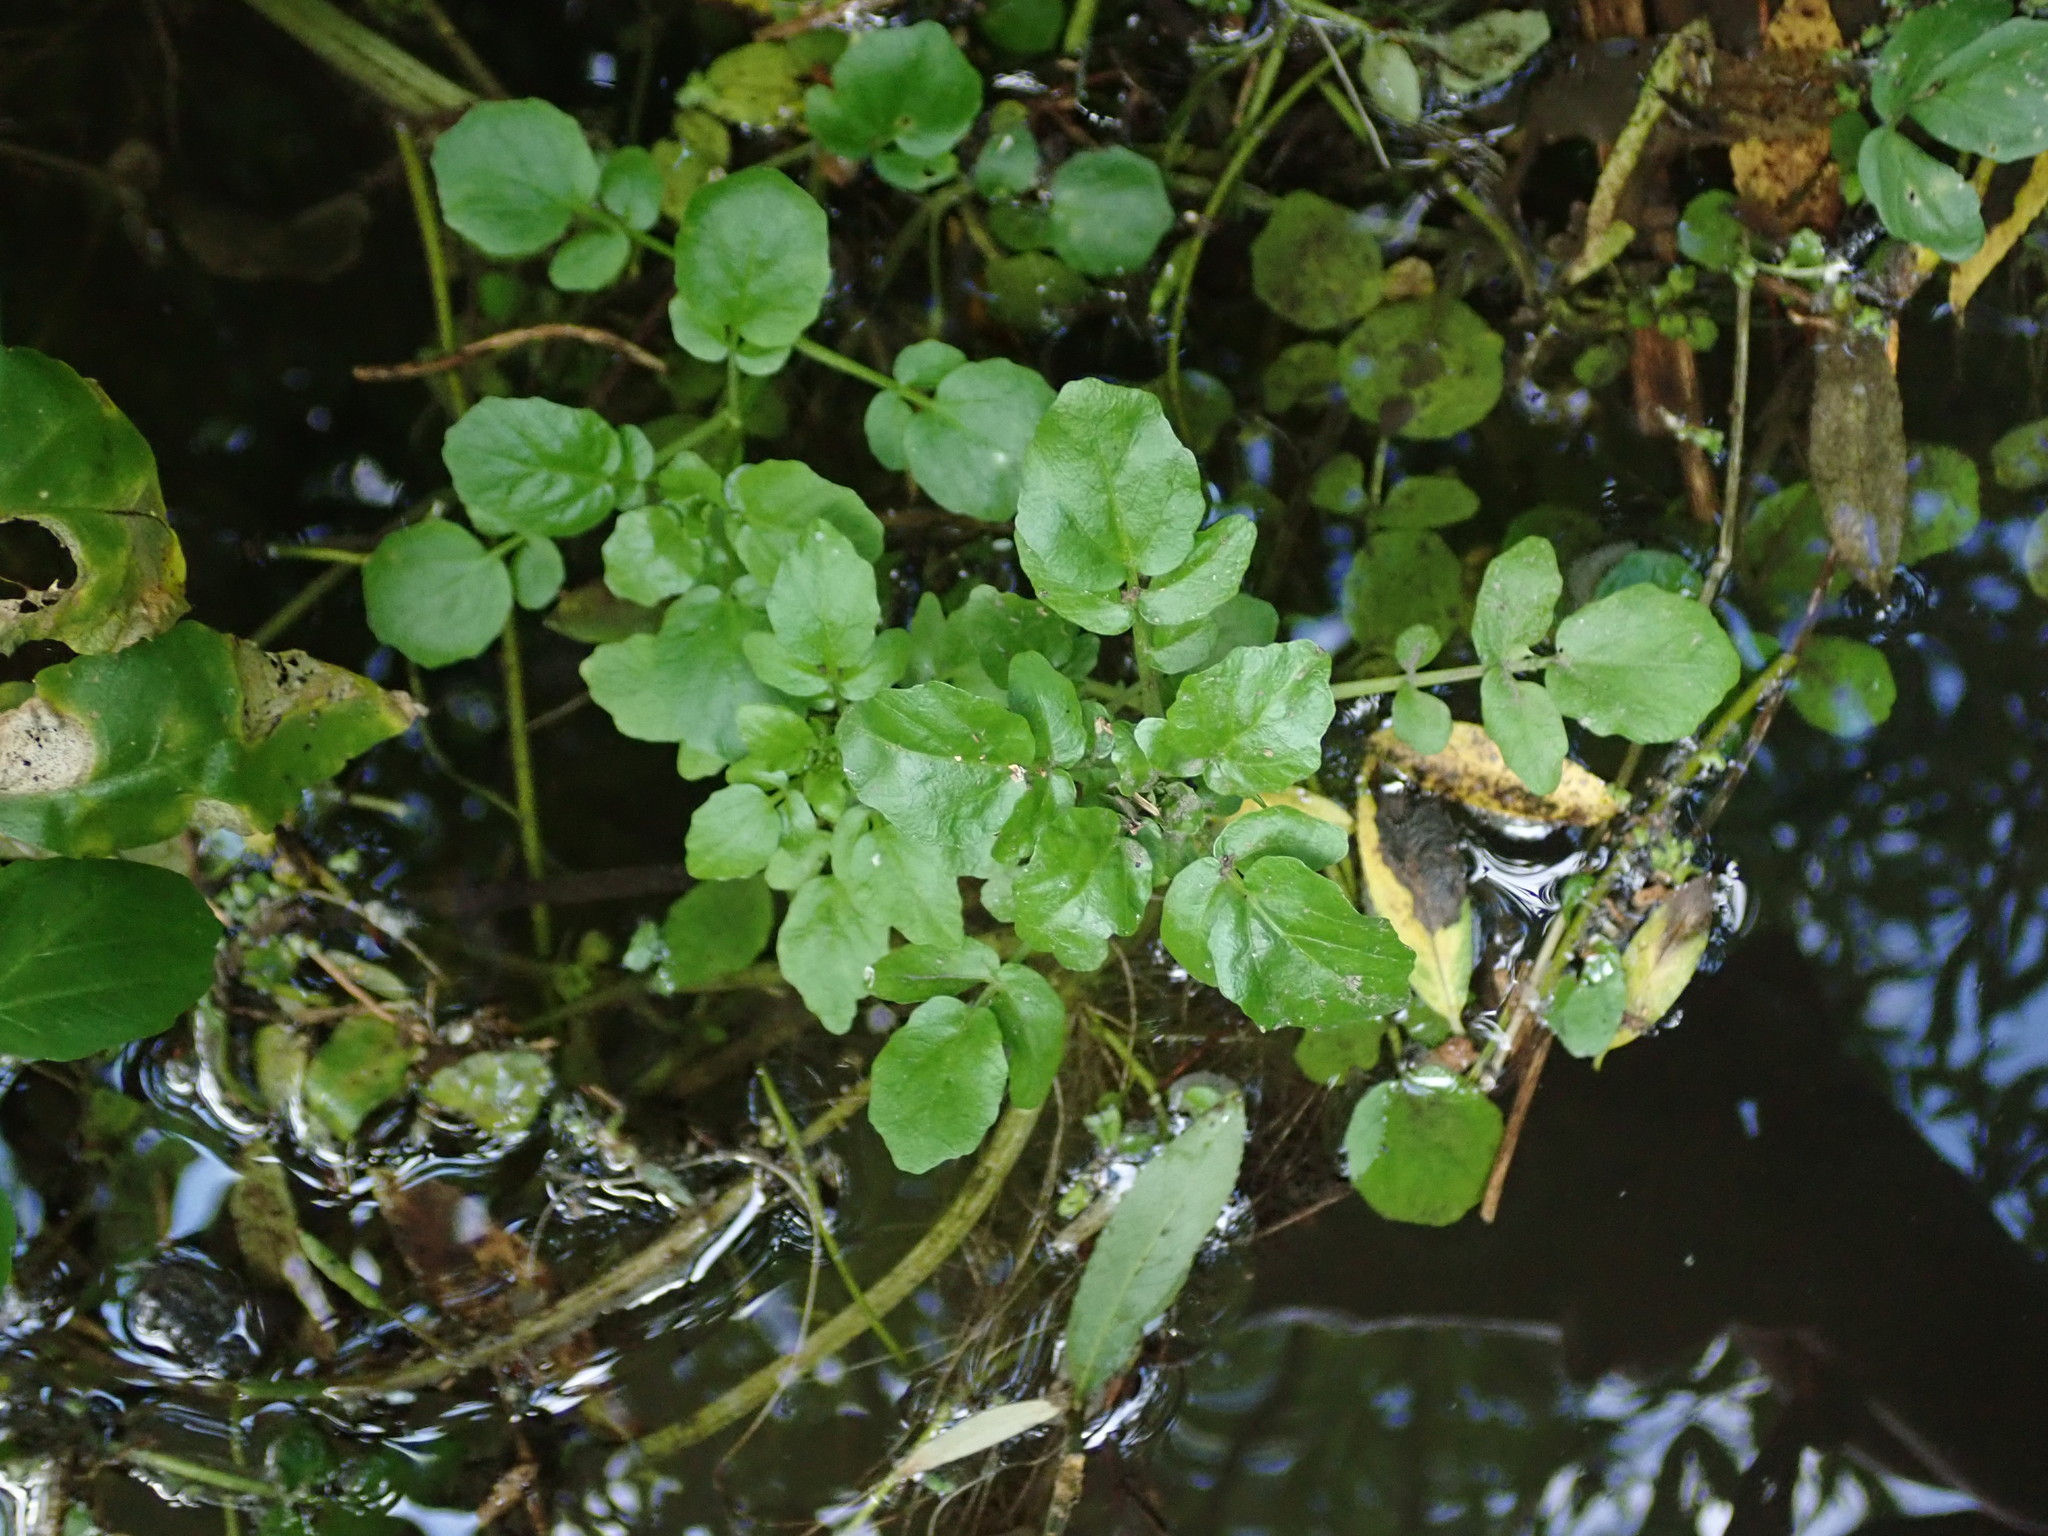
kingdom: Plantae
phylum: Tracheophyta
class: Magnoliopsida
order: Brassicales
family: Brassicaceae
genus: Nasturtium
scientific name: Nasturtium officinale
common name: Watercress
